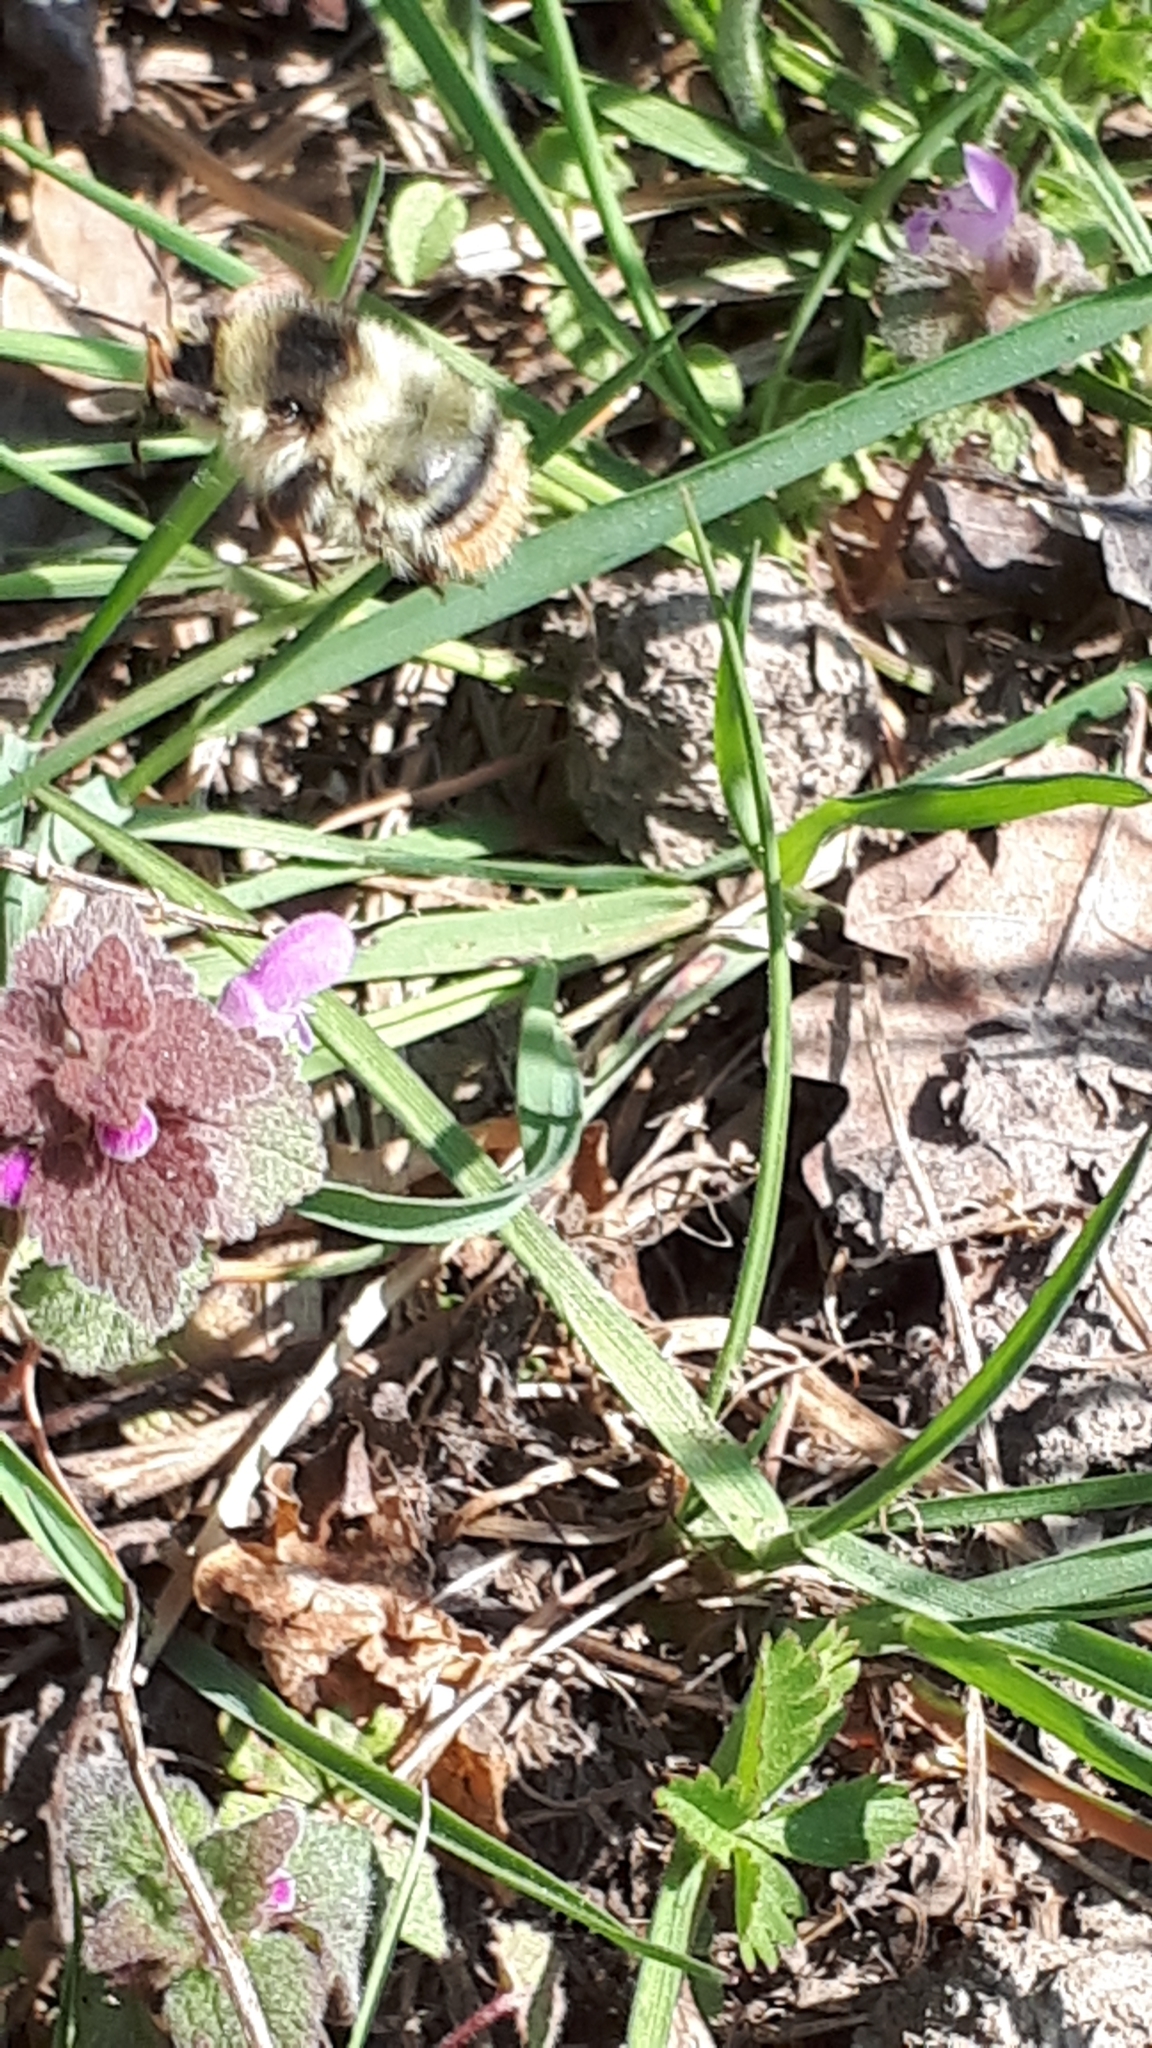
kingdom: Animalia
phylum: Arthropoda
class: Insecta
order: Hymenoptera
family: Apidae
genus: Bombus
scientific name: Bombus sylvarum
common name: Shrill carder bee
